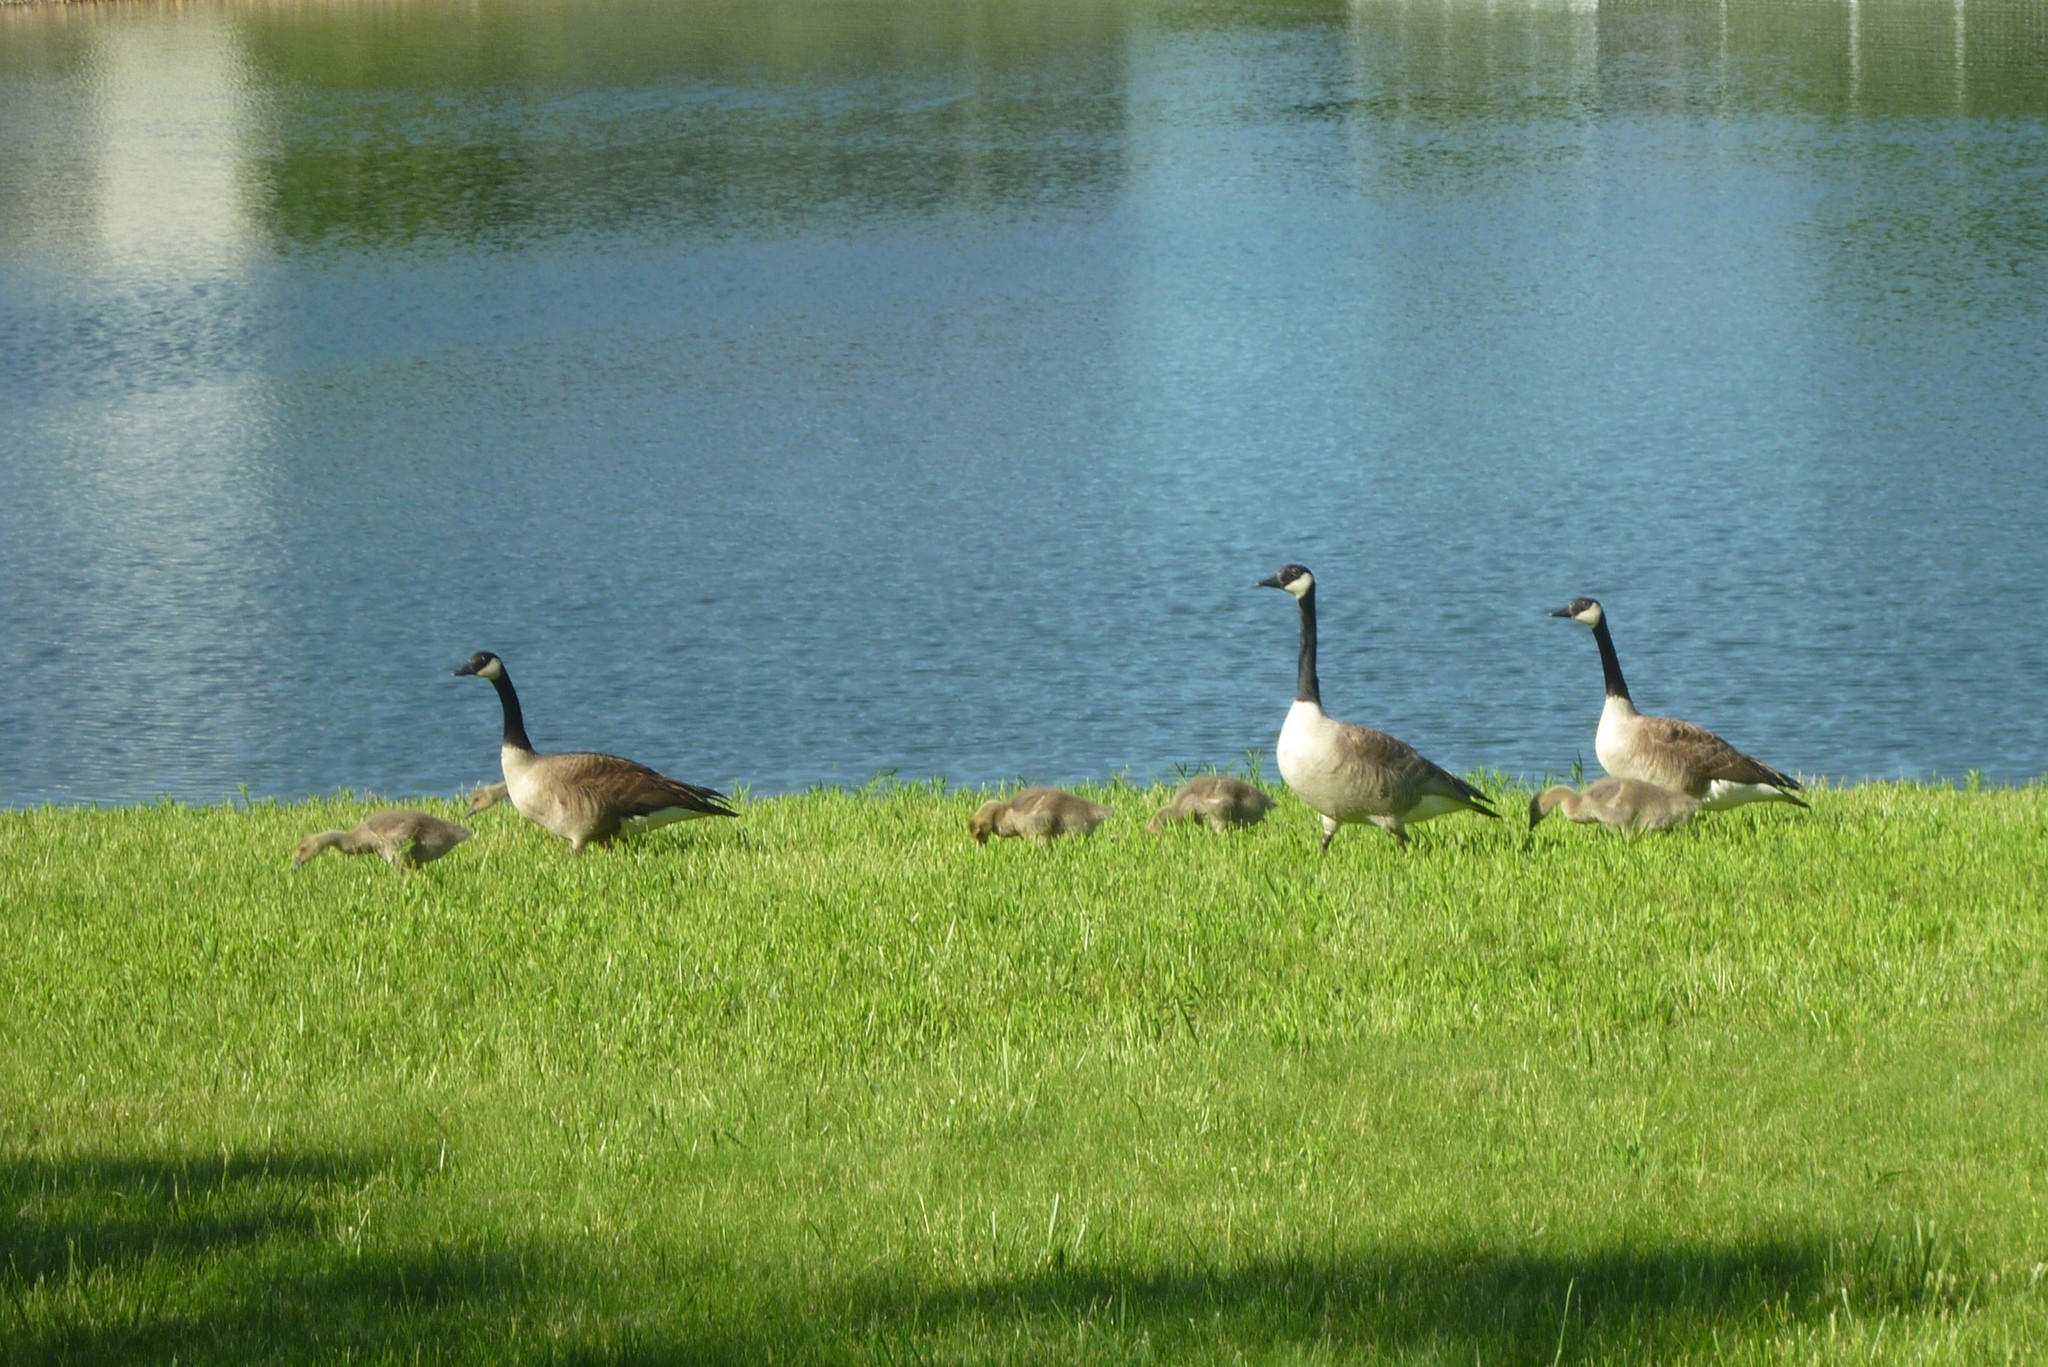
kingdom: Animalia
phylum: Chordata
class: Aves
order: Anseriformes
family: Anatidae
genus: Branta
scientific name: Branta canadensis
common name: Canada goose
